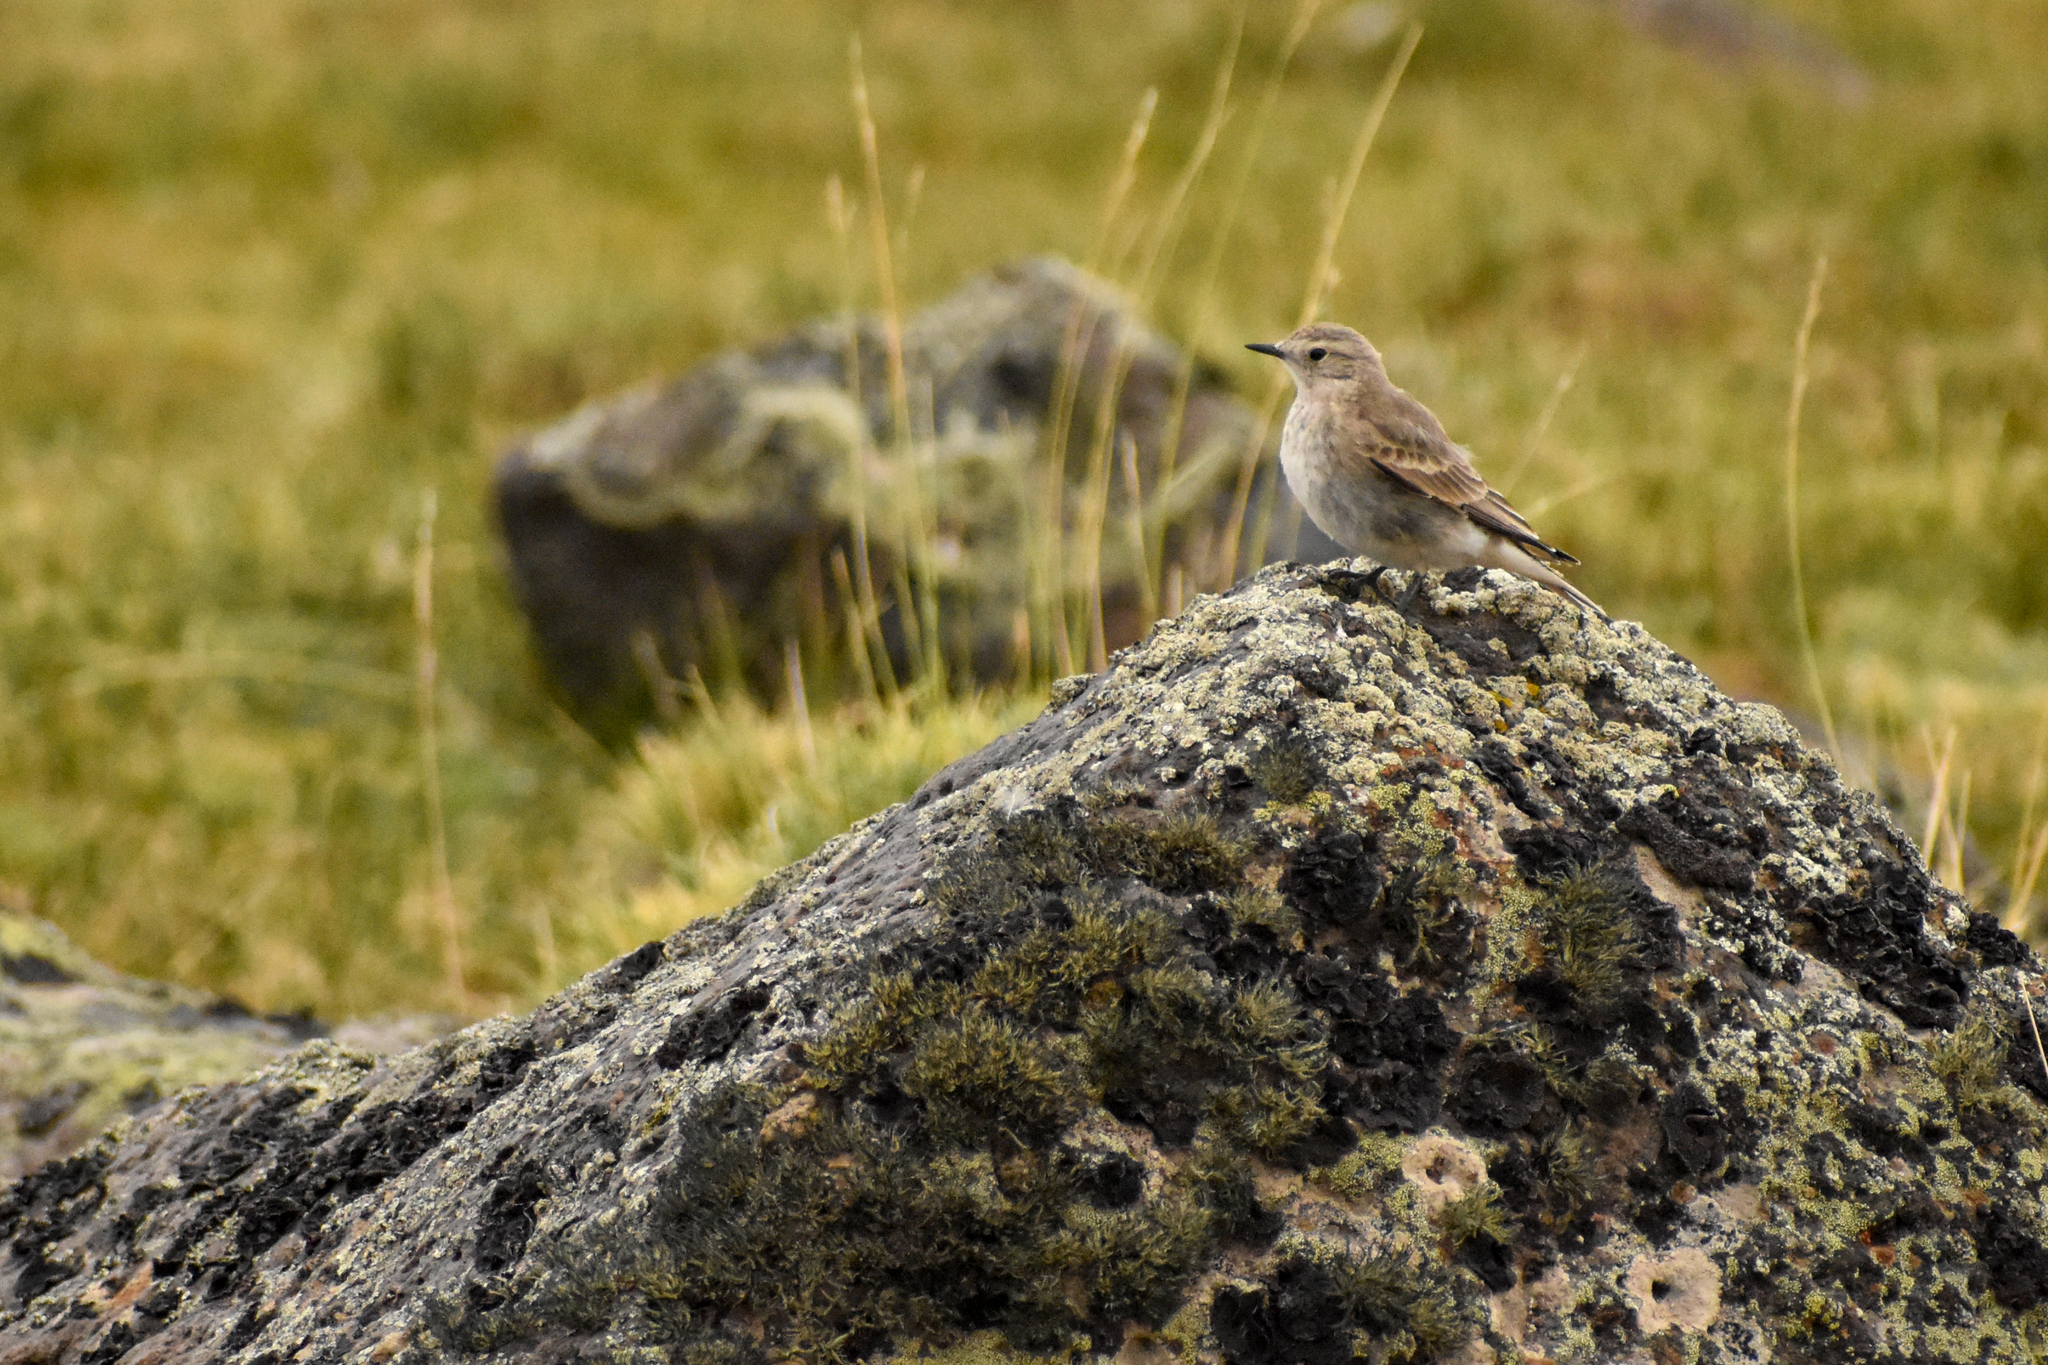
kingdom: Animalia
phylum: Chordata
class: Aves
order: Passeriformes
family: Furnariidae
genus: Geositta
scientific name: Geositta antarctica
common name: Short-billed miner
